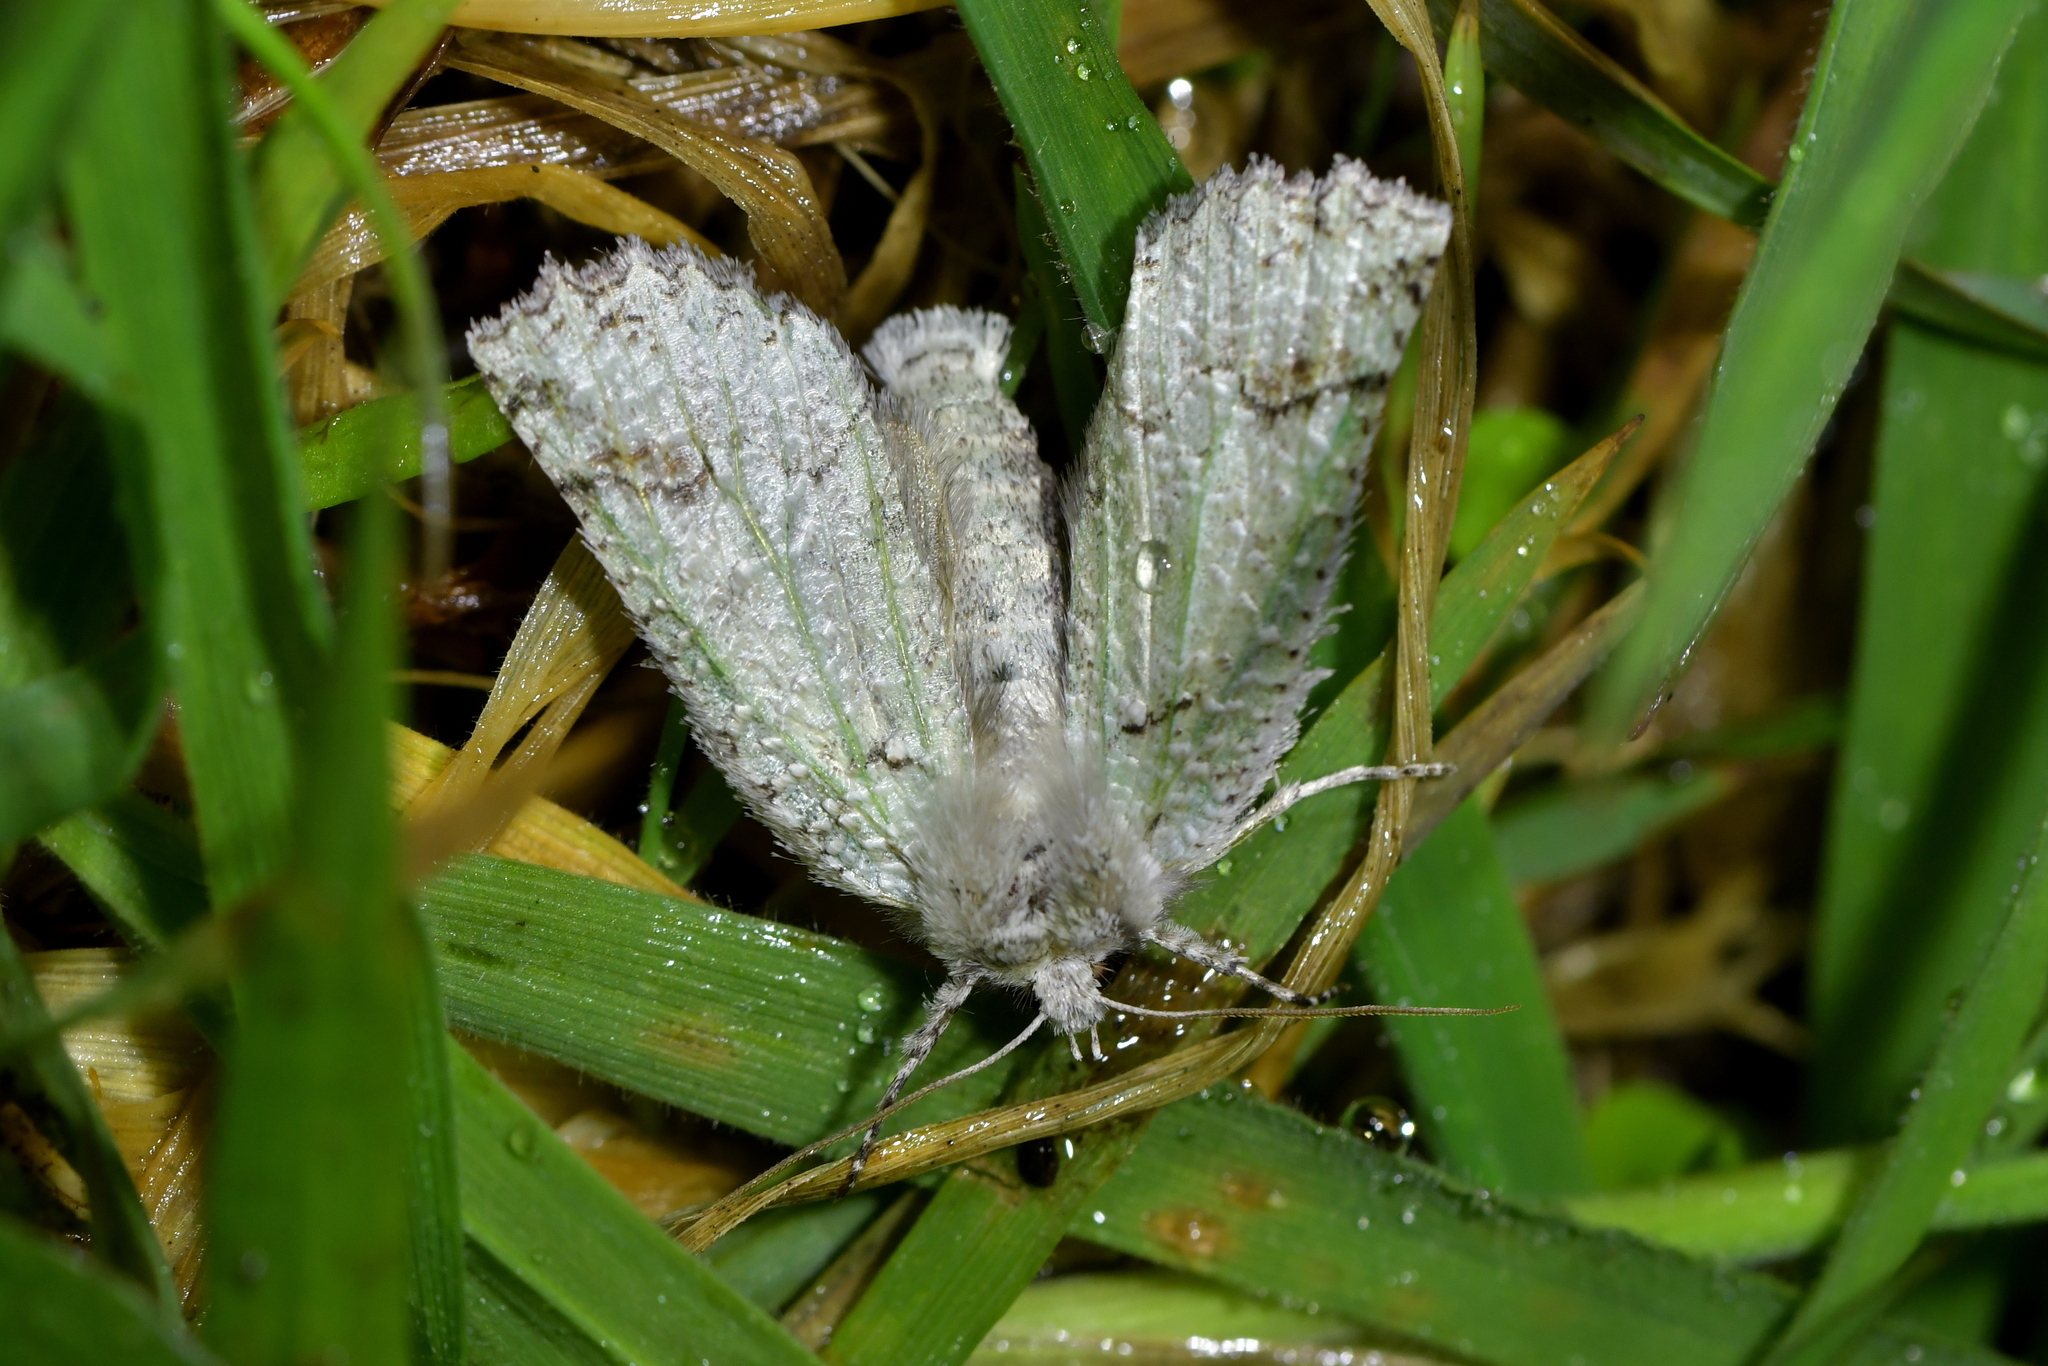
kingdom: Animalia
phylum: Arthropoda
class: Insecta
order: Lepidoptera
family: Geometridae
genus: Declana
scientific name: Declana floccosa
